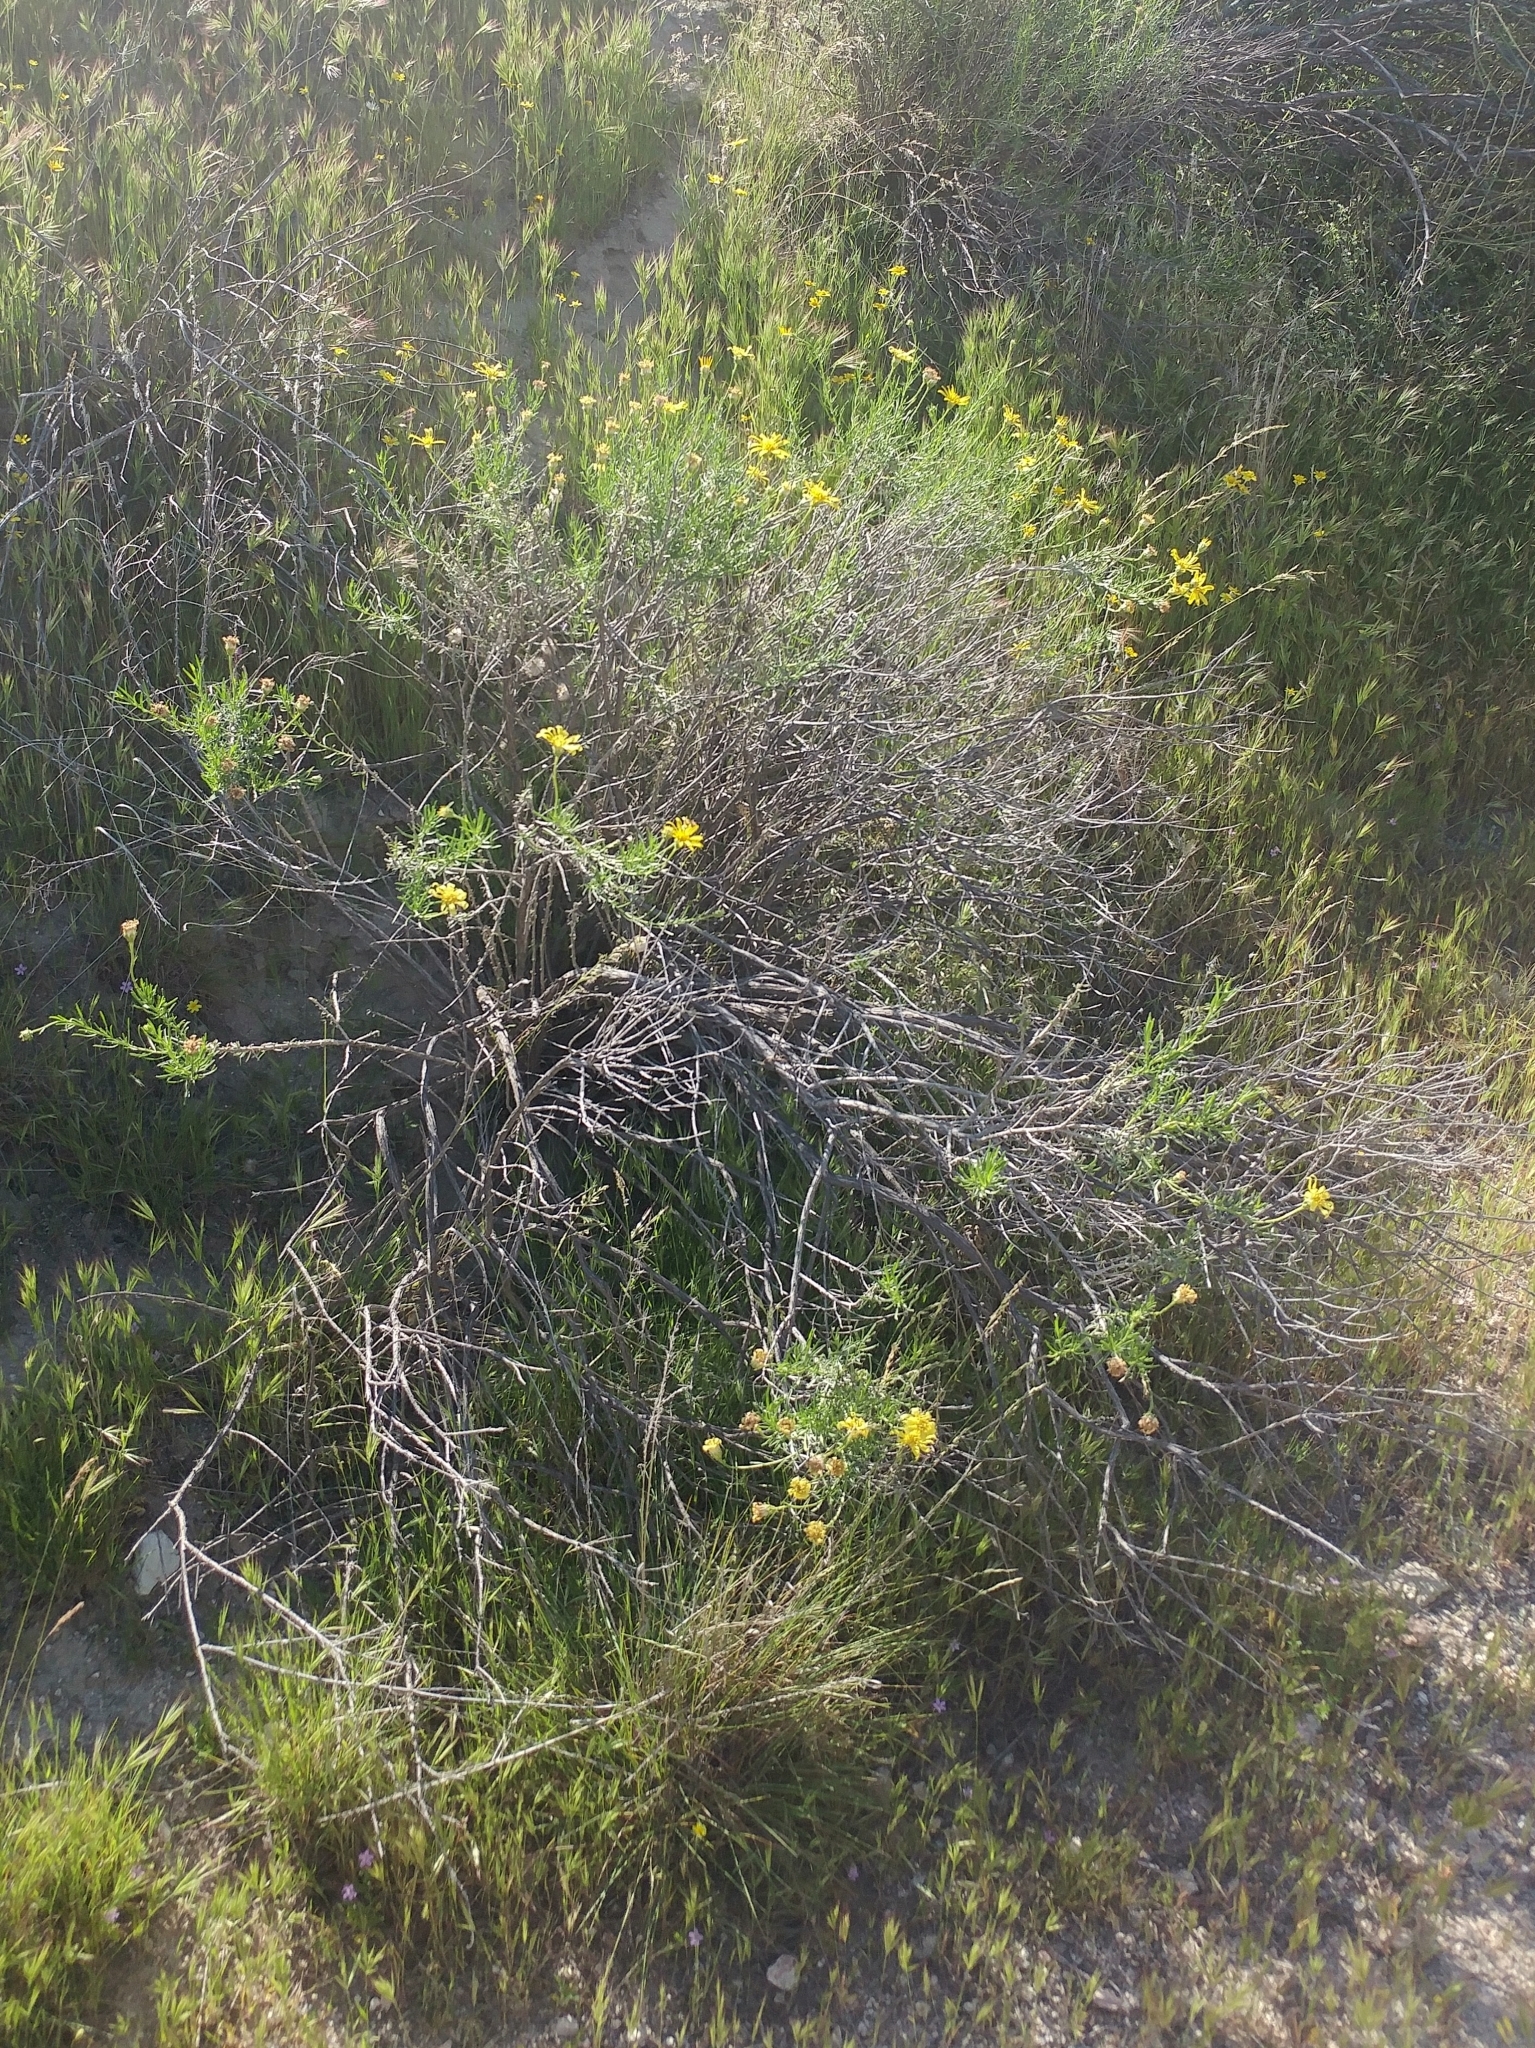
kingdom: Plantae
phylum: Tracheophyta
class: Magnoliopsida
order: Asterales
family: Asteraceae
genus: Ericameria
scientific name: Ericameria linearifolia
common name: Interior goldenbush
